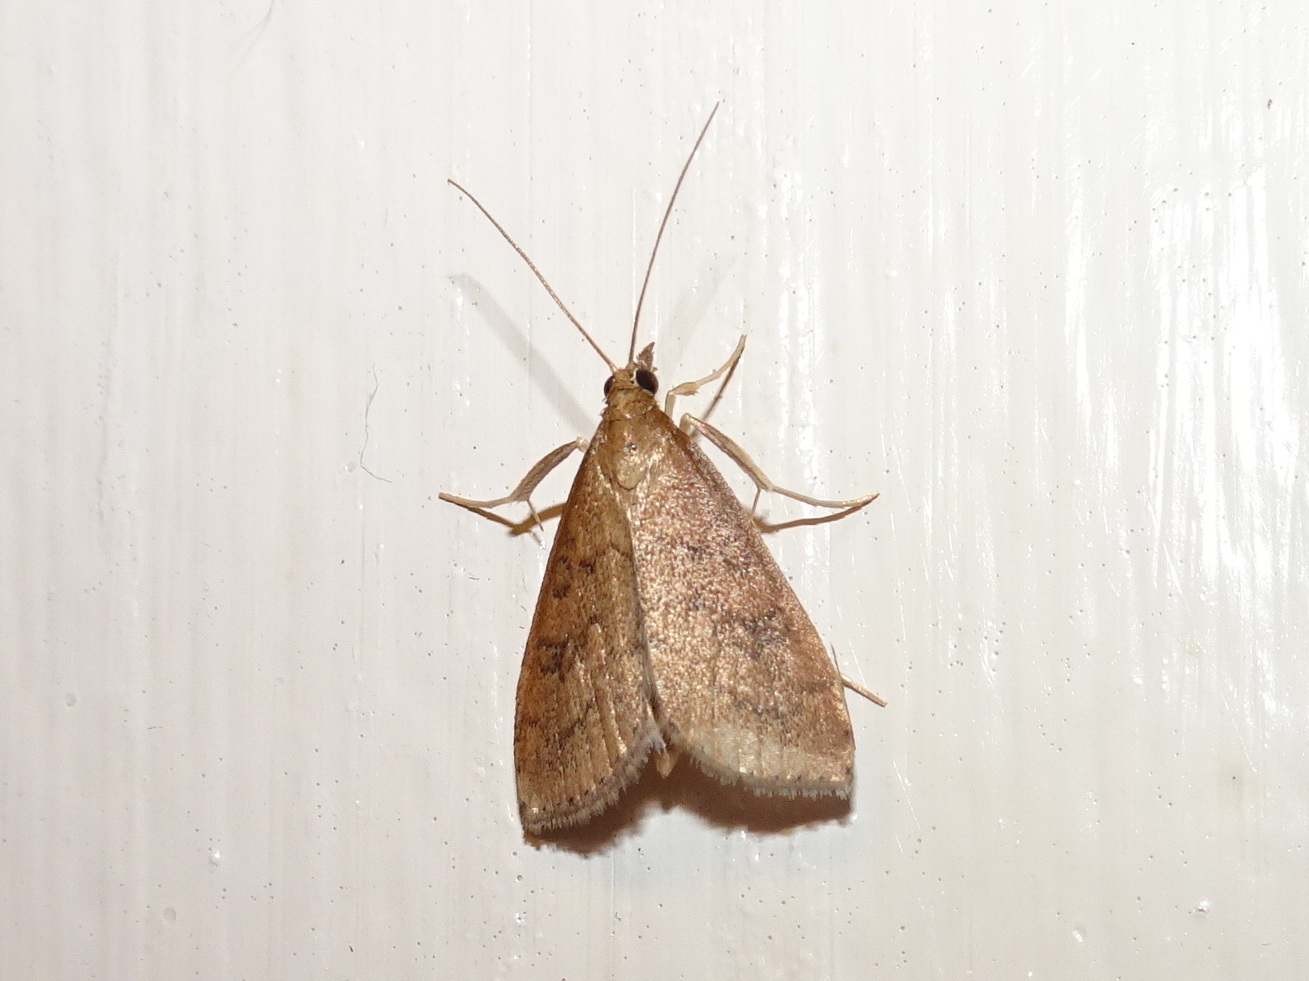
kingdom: Animalia
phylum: Arthropoda
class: Insecta
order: Lepidoptera
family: Crambidae
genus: Udea
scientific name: Udea rubigalis
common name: Celery leaftier moth
